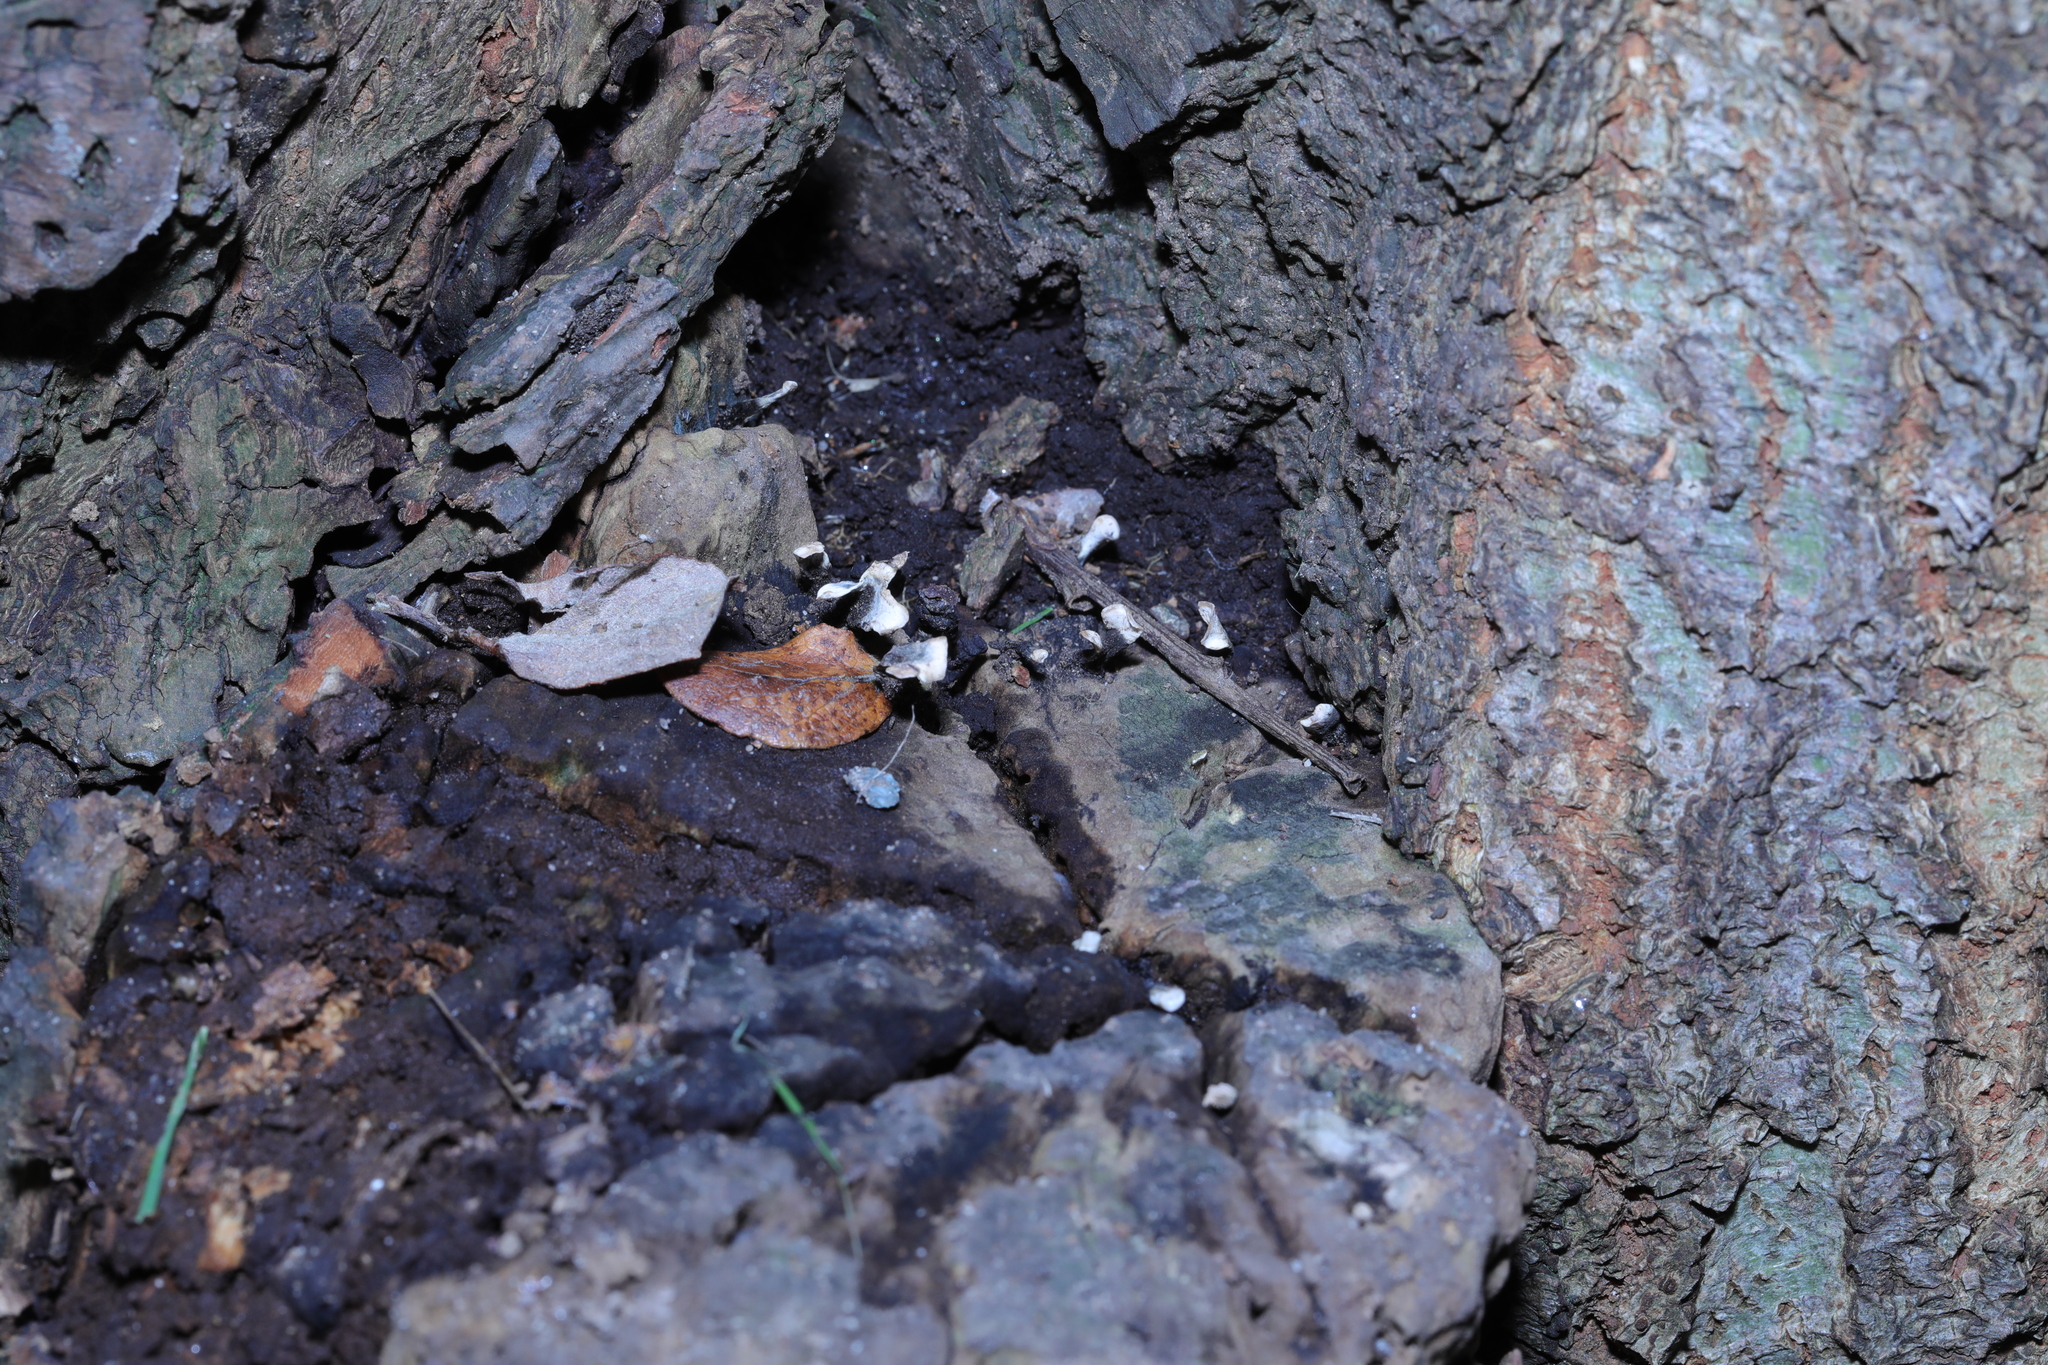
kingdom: Fungi
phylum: Ascomycota
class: Sordariomycetes
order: Xylariales
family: Xylariaceae
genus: Xylaria
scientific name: Xylaria hypoxylon
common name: Candle-snuff fungus
